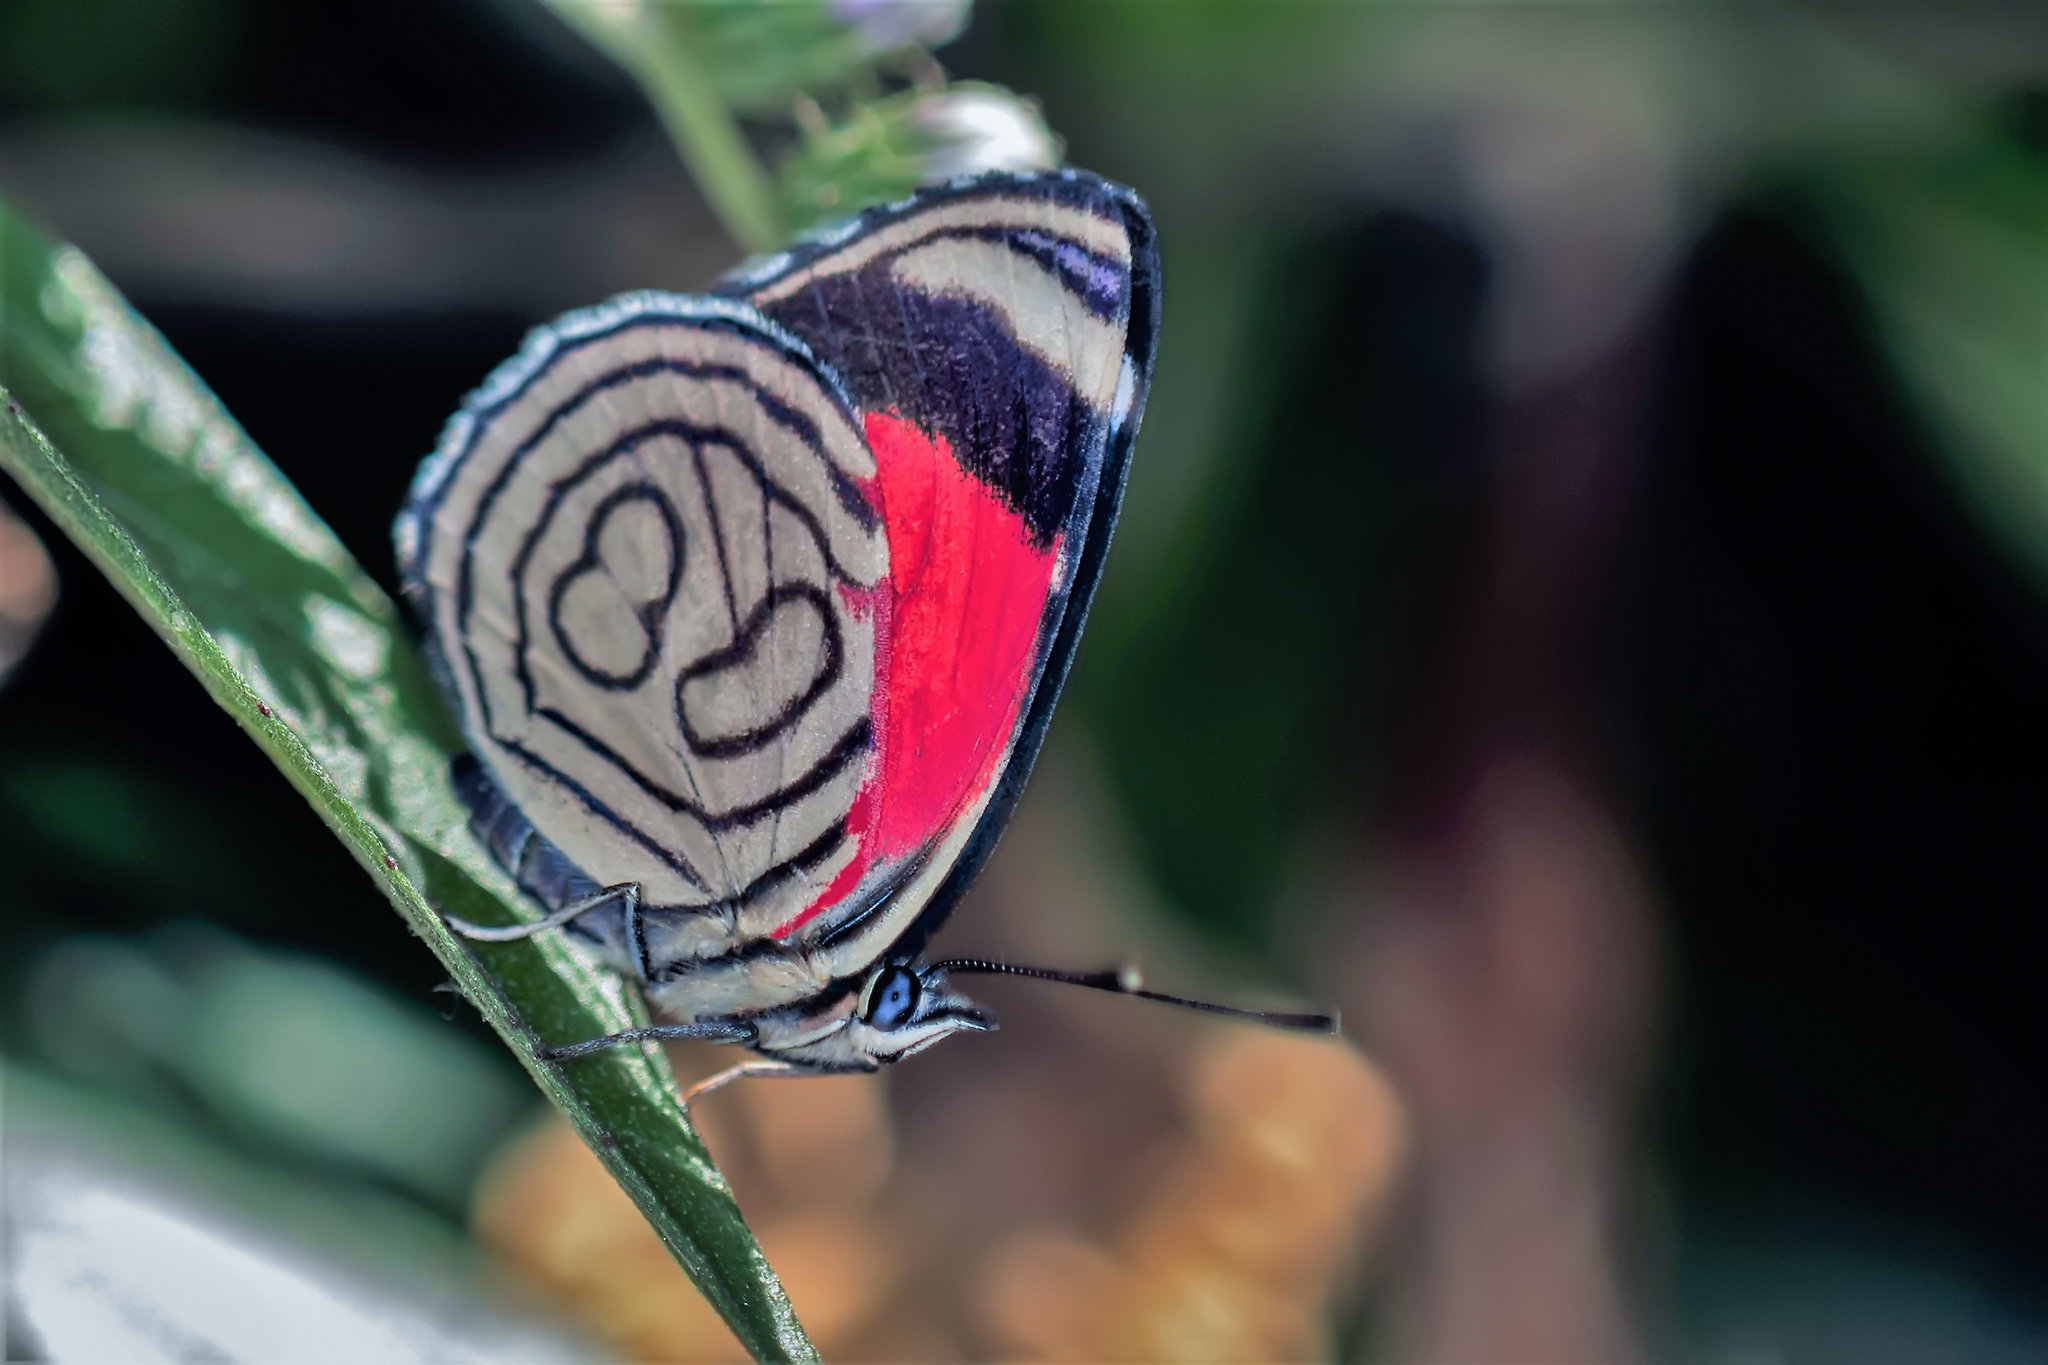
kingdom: Animalia
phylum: Arthropoda
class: Insecta
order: Lepidoptera
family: Nymphalidae
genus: Diaethria
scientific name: Diaethria candrena
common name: Number eighty
